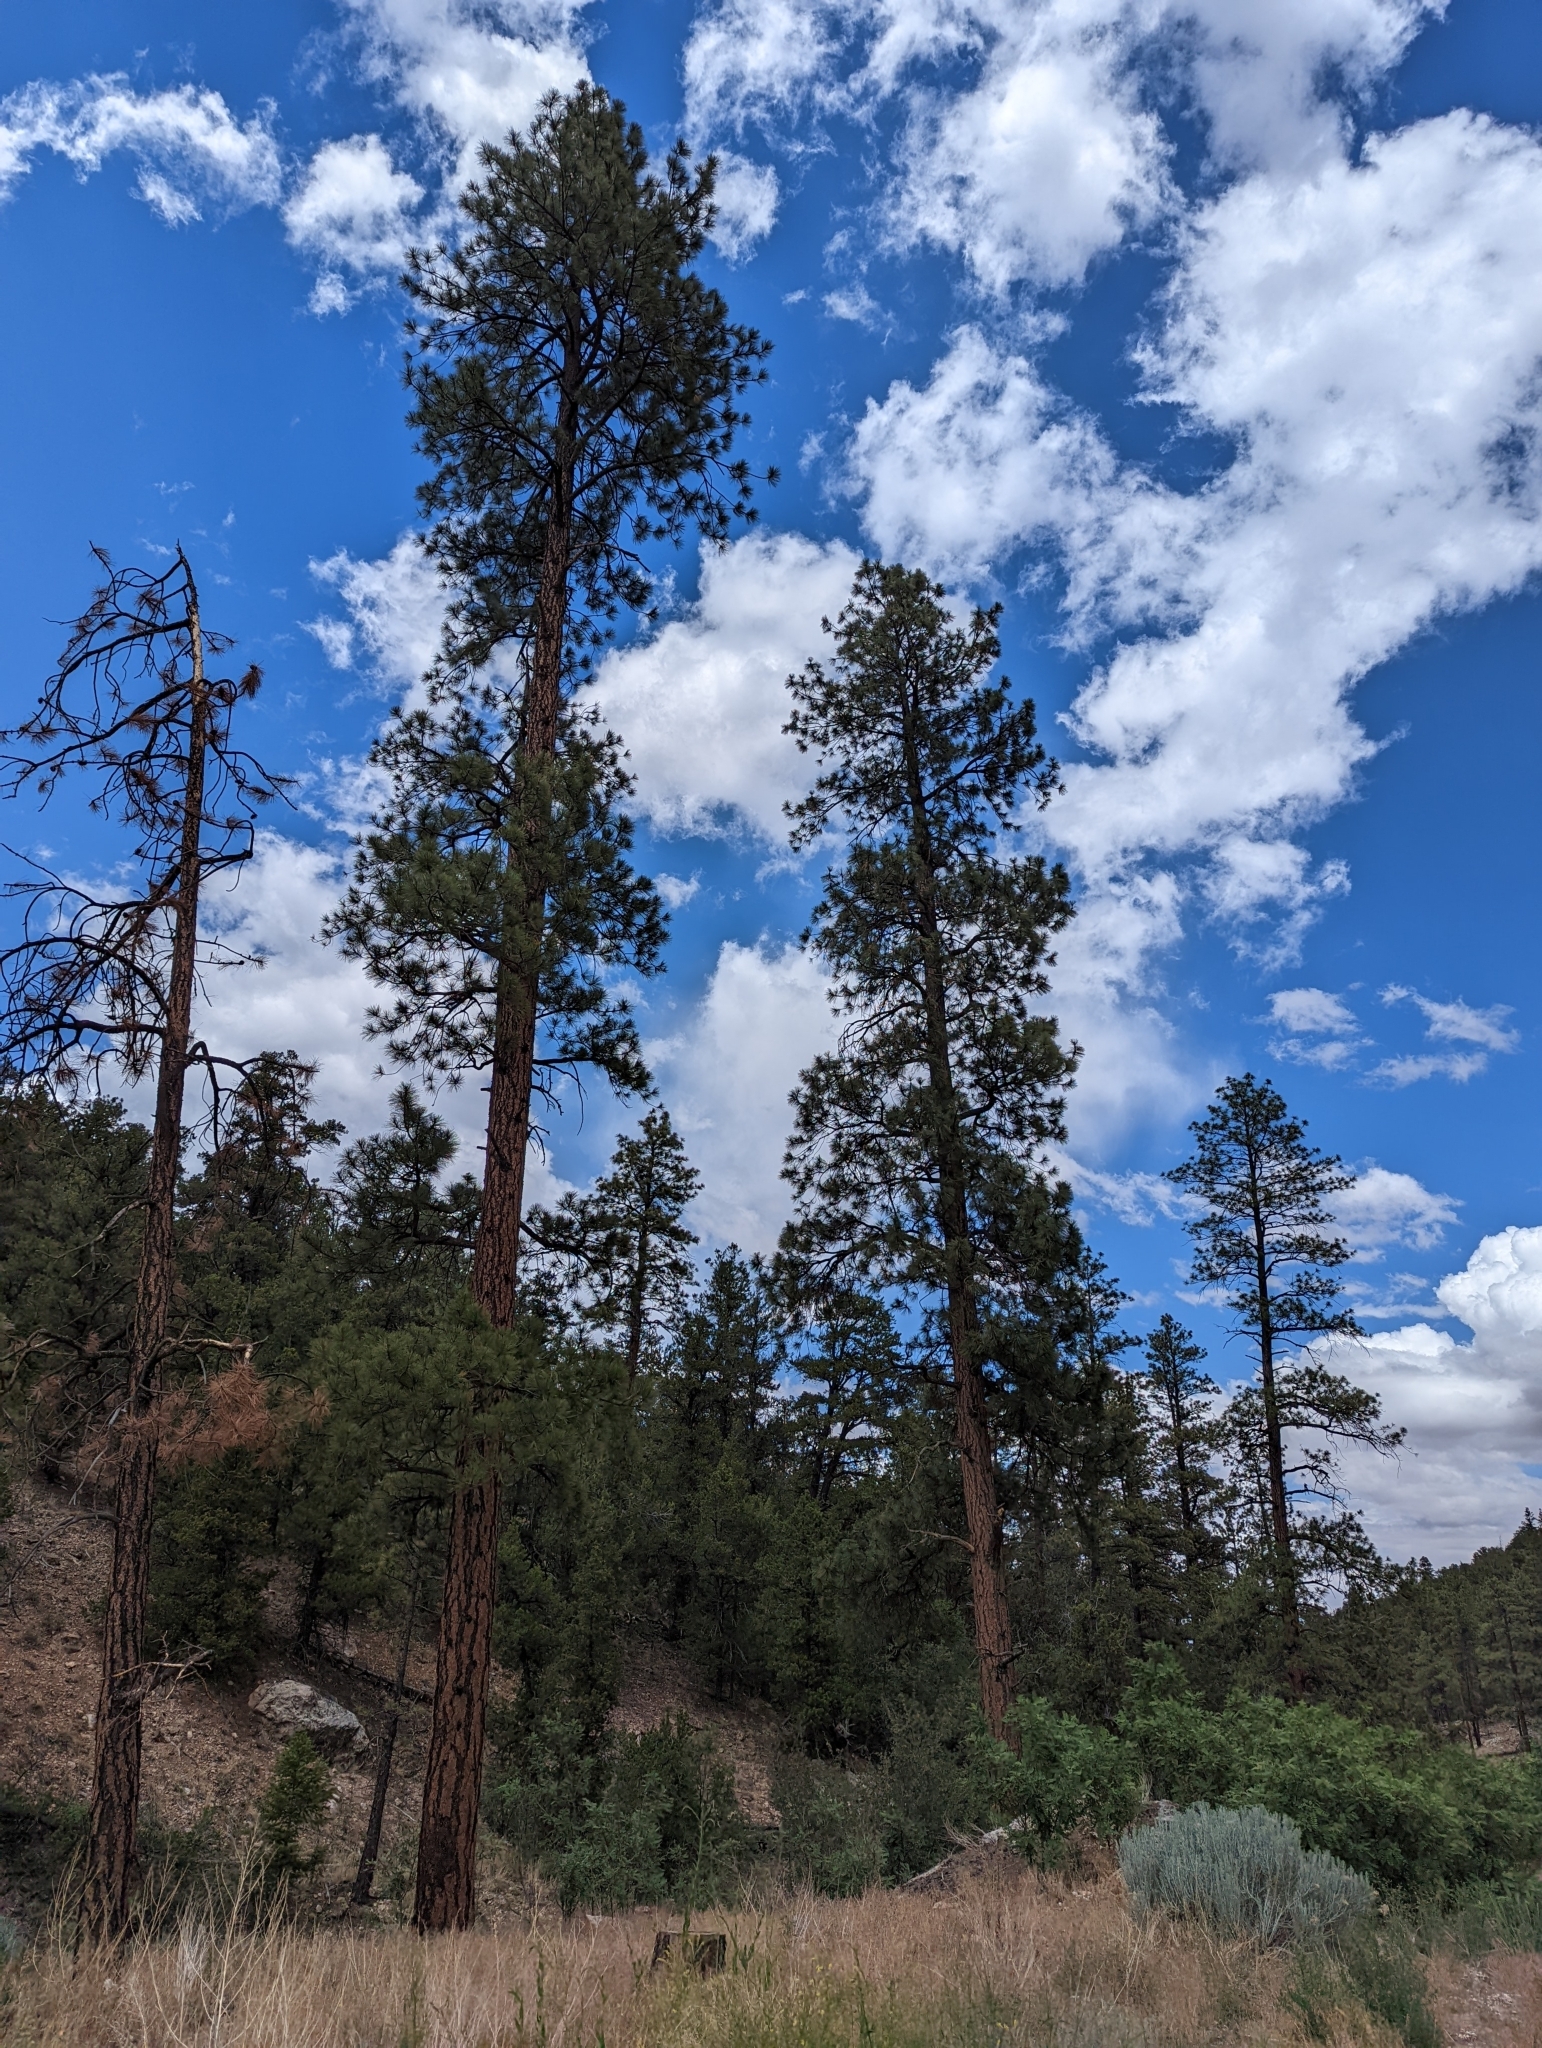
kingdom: Plantae
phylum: Tracheophyta
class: Pinopsida
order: Pinales
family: Pinaceae
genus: Pinus
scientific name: Pinus ponderosa
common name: Western yellow-pine
